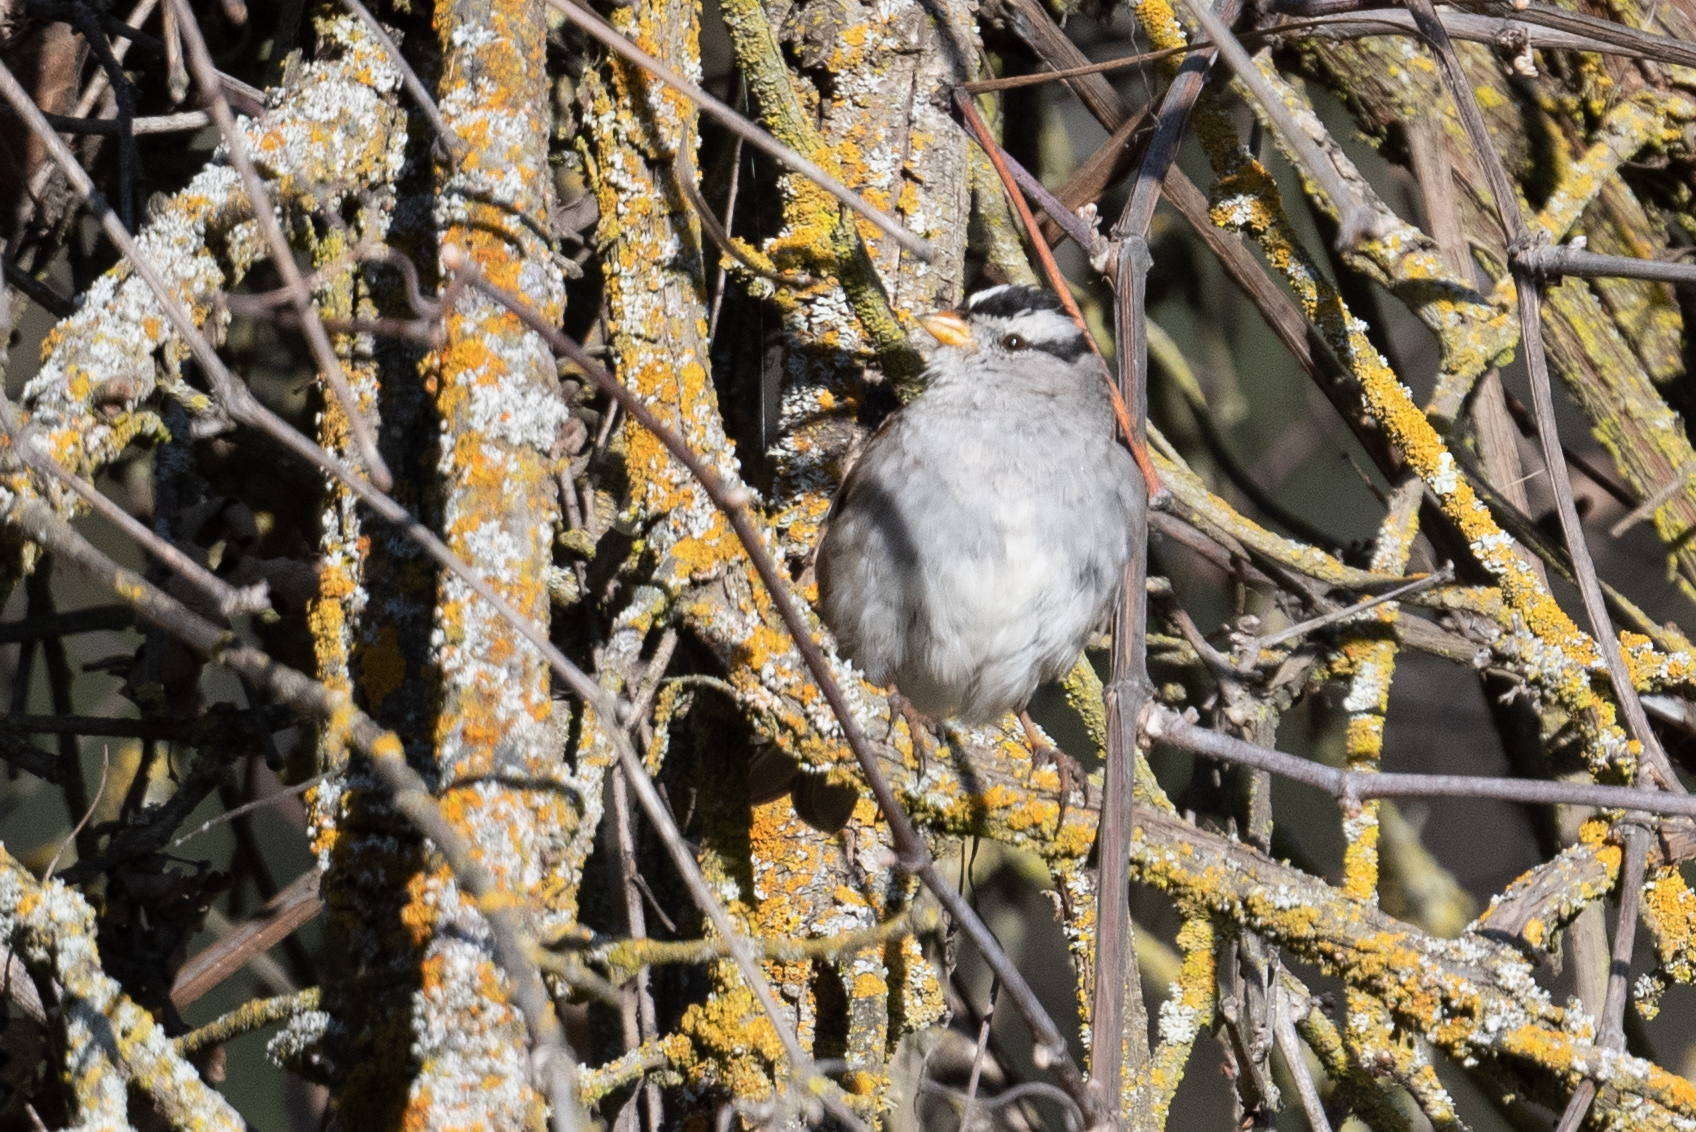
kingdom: Animalia
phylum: Chordata
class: Aves
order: Passeriformes
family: Passerellidae
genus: Zonotrichia
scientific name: Zonotrichia leucophrys
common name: White-crowned sparrow
